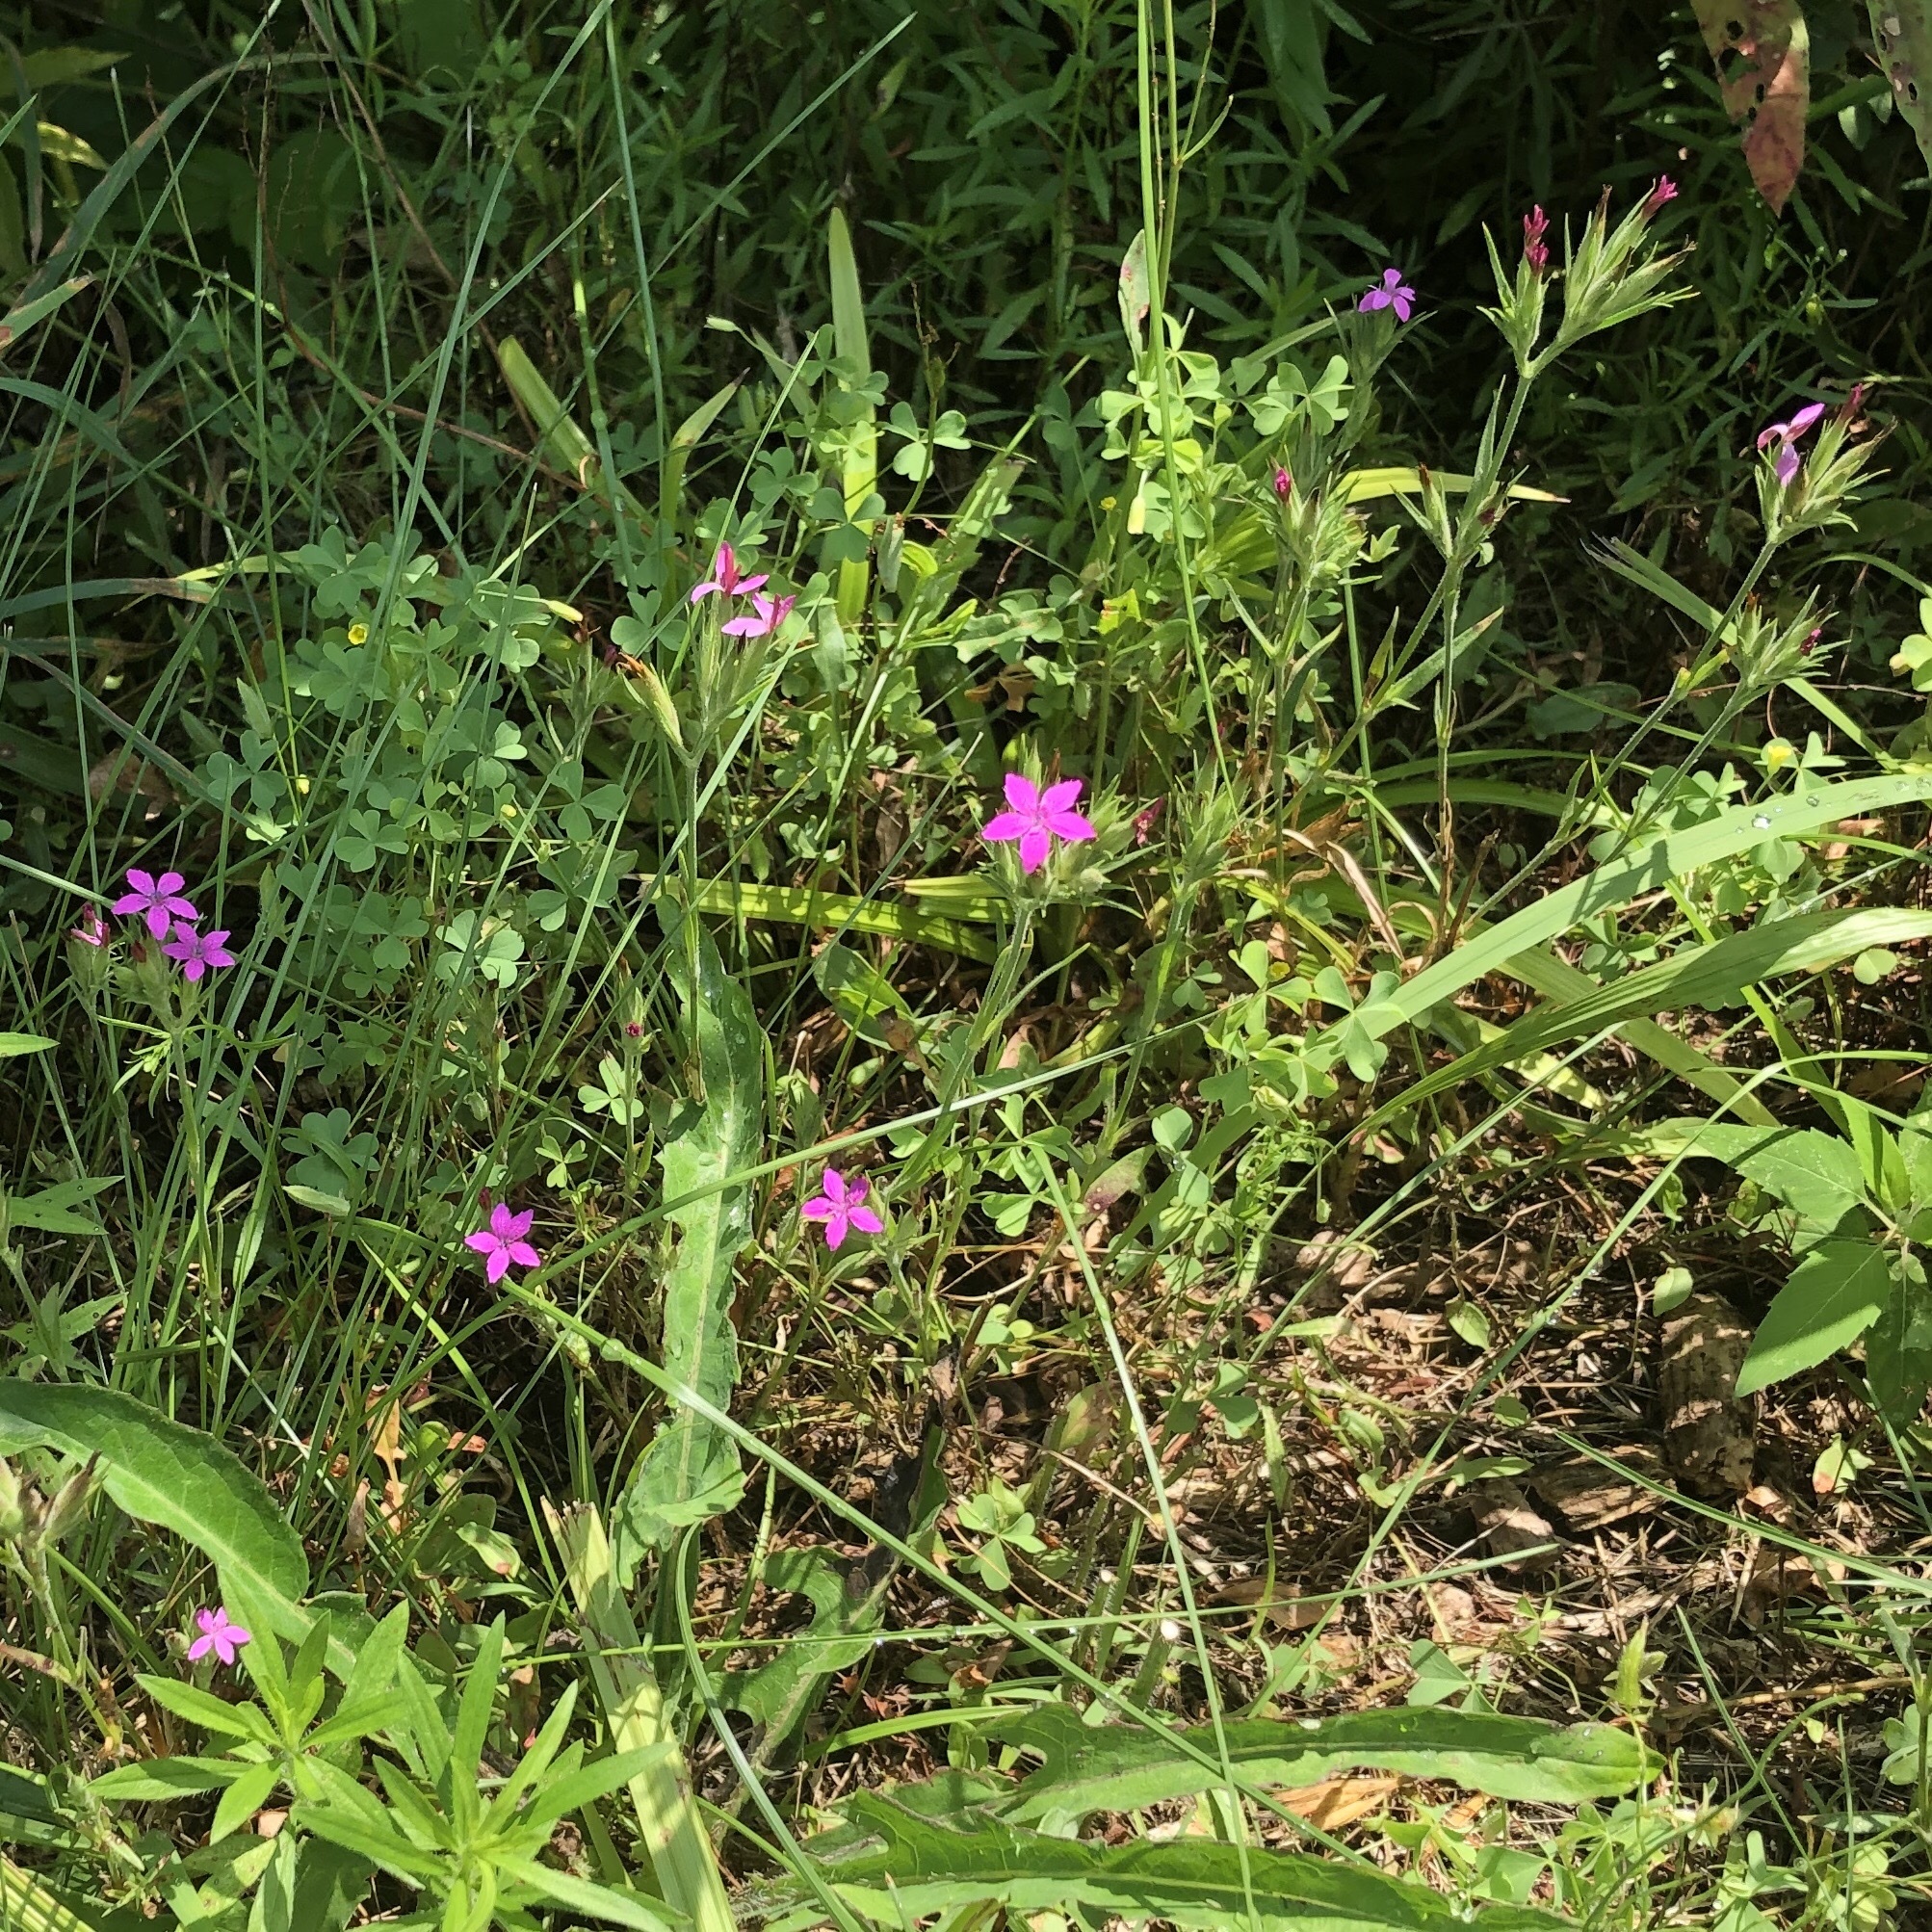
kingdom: Plantae
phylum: Tracheophyta
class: Magnoliopsida
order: Caryophyllales
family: Caryophyllaceae
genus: Dianthus
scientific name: Dianthus armeria
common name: Deptford pink
